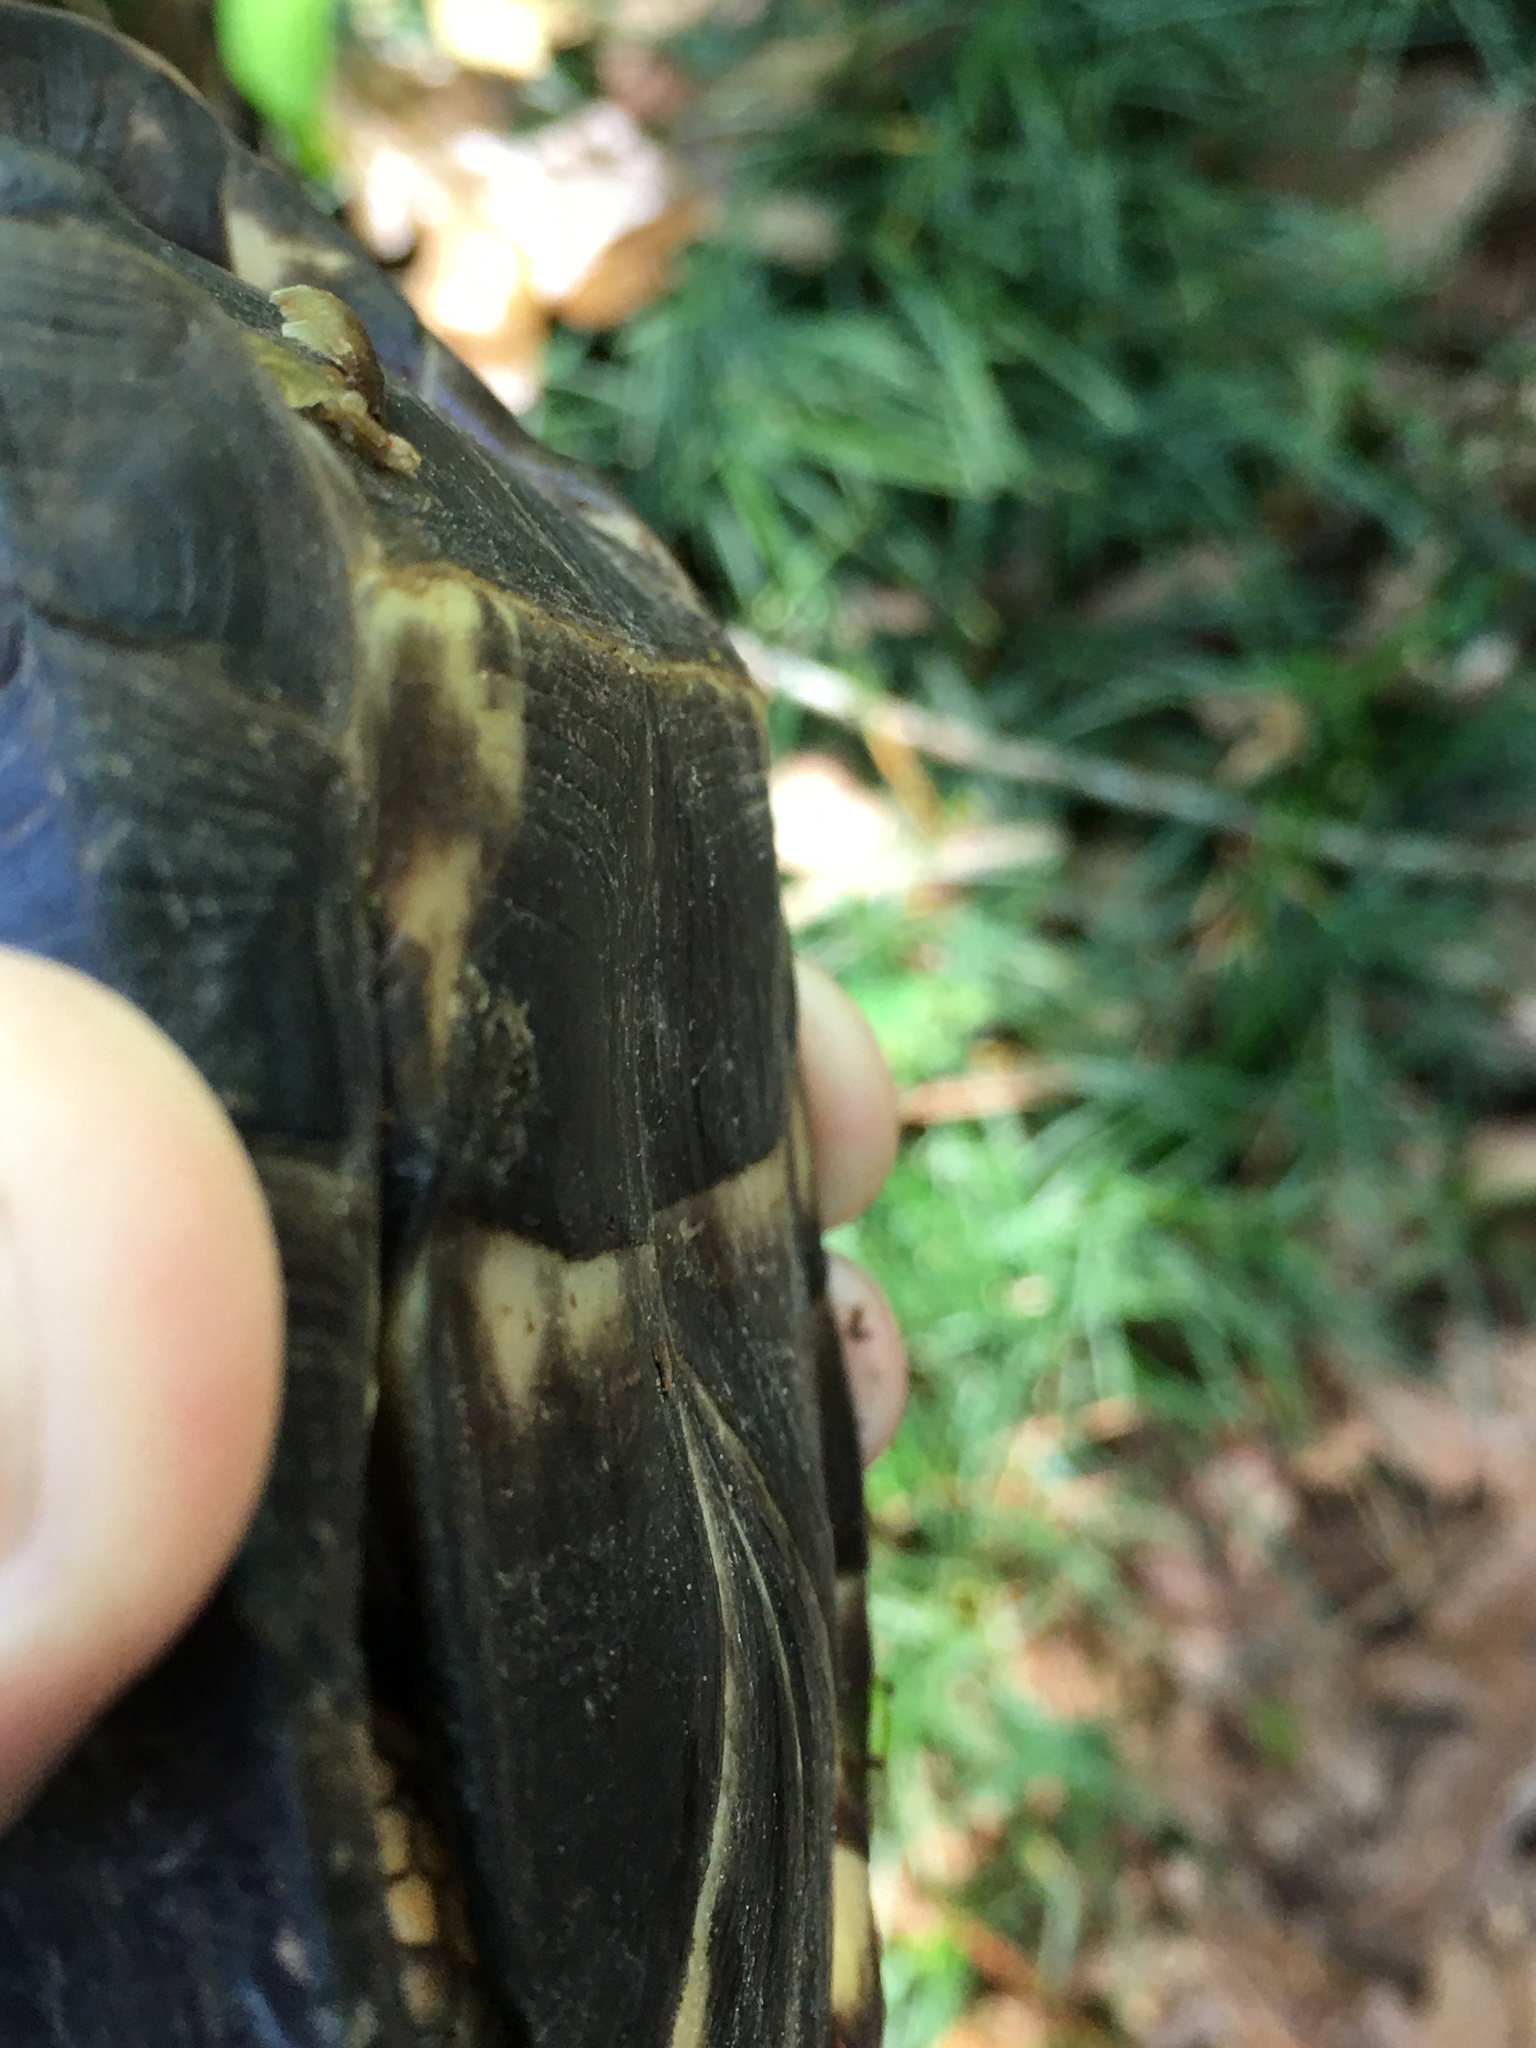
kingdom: Animalia
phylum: Chordata
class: Testudines
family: Emydidae
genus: Terrapene
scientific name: Terrapene carolina
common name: Common box turtle
